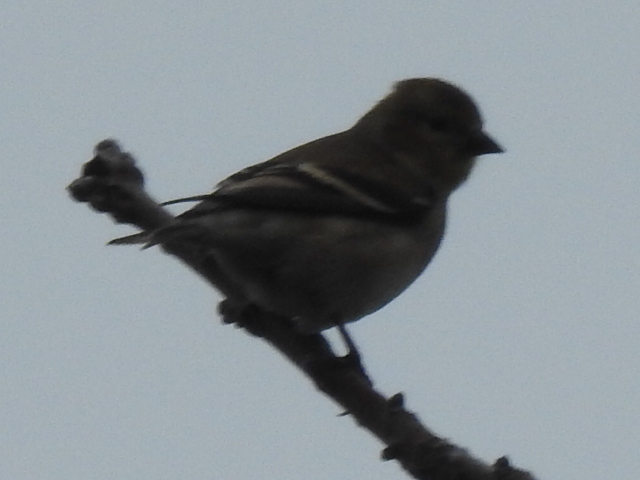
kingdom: Animalia
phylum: Chordata
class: Aves
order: Passeriformes
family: Fringillidae
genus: Spinus
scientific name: Spinus tristis
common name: American goldfinch
